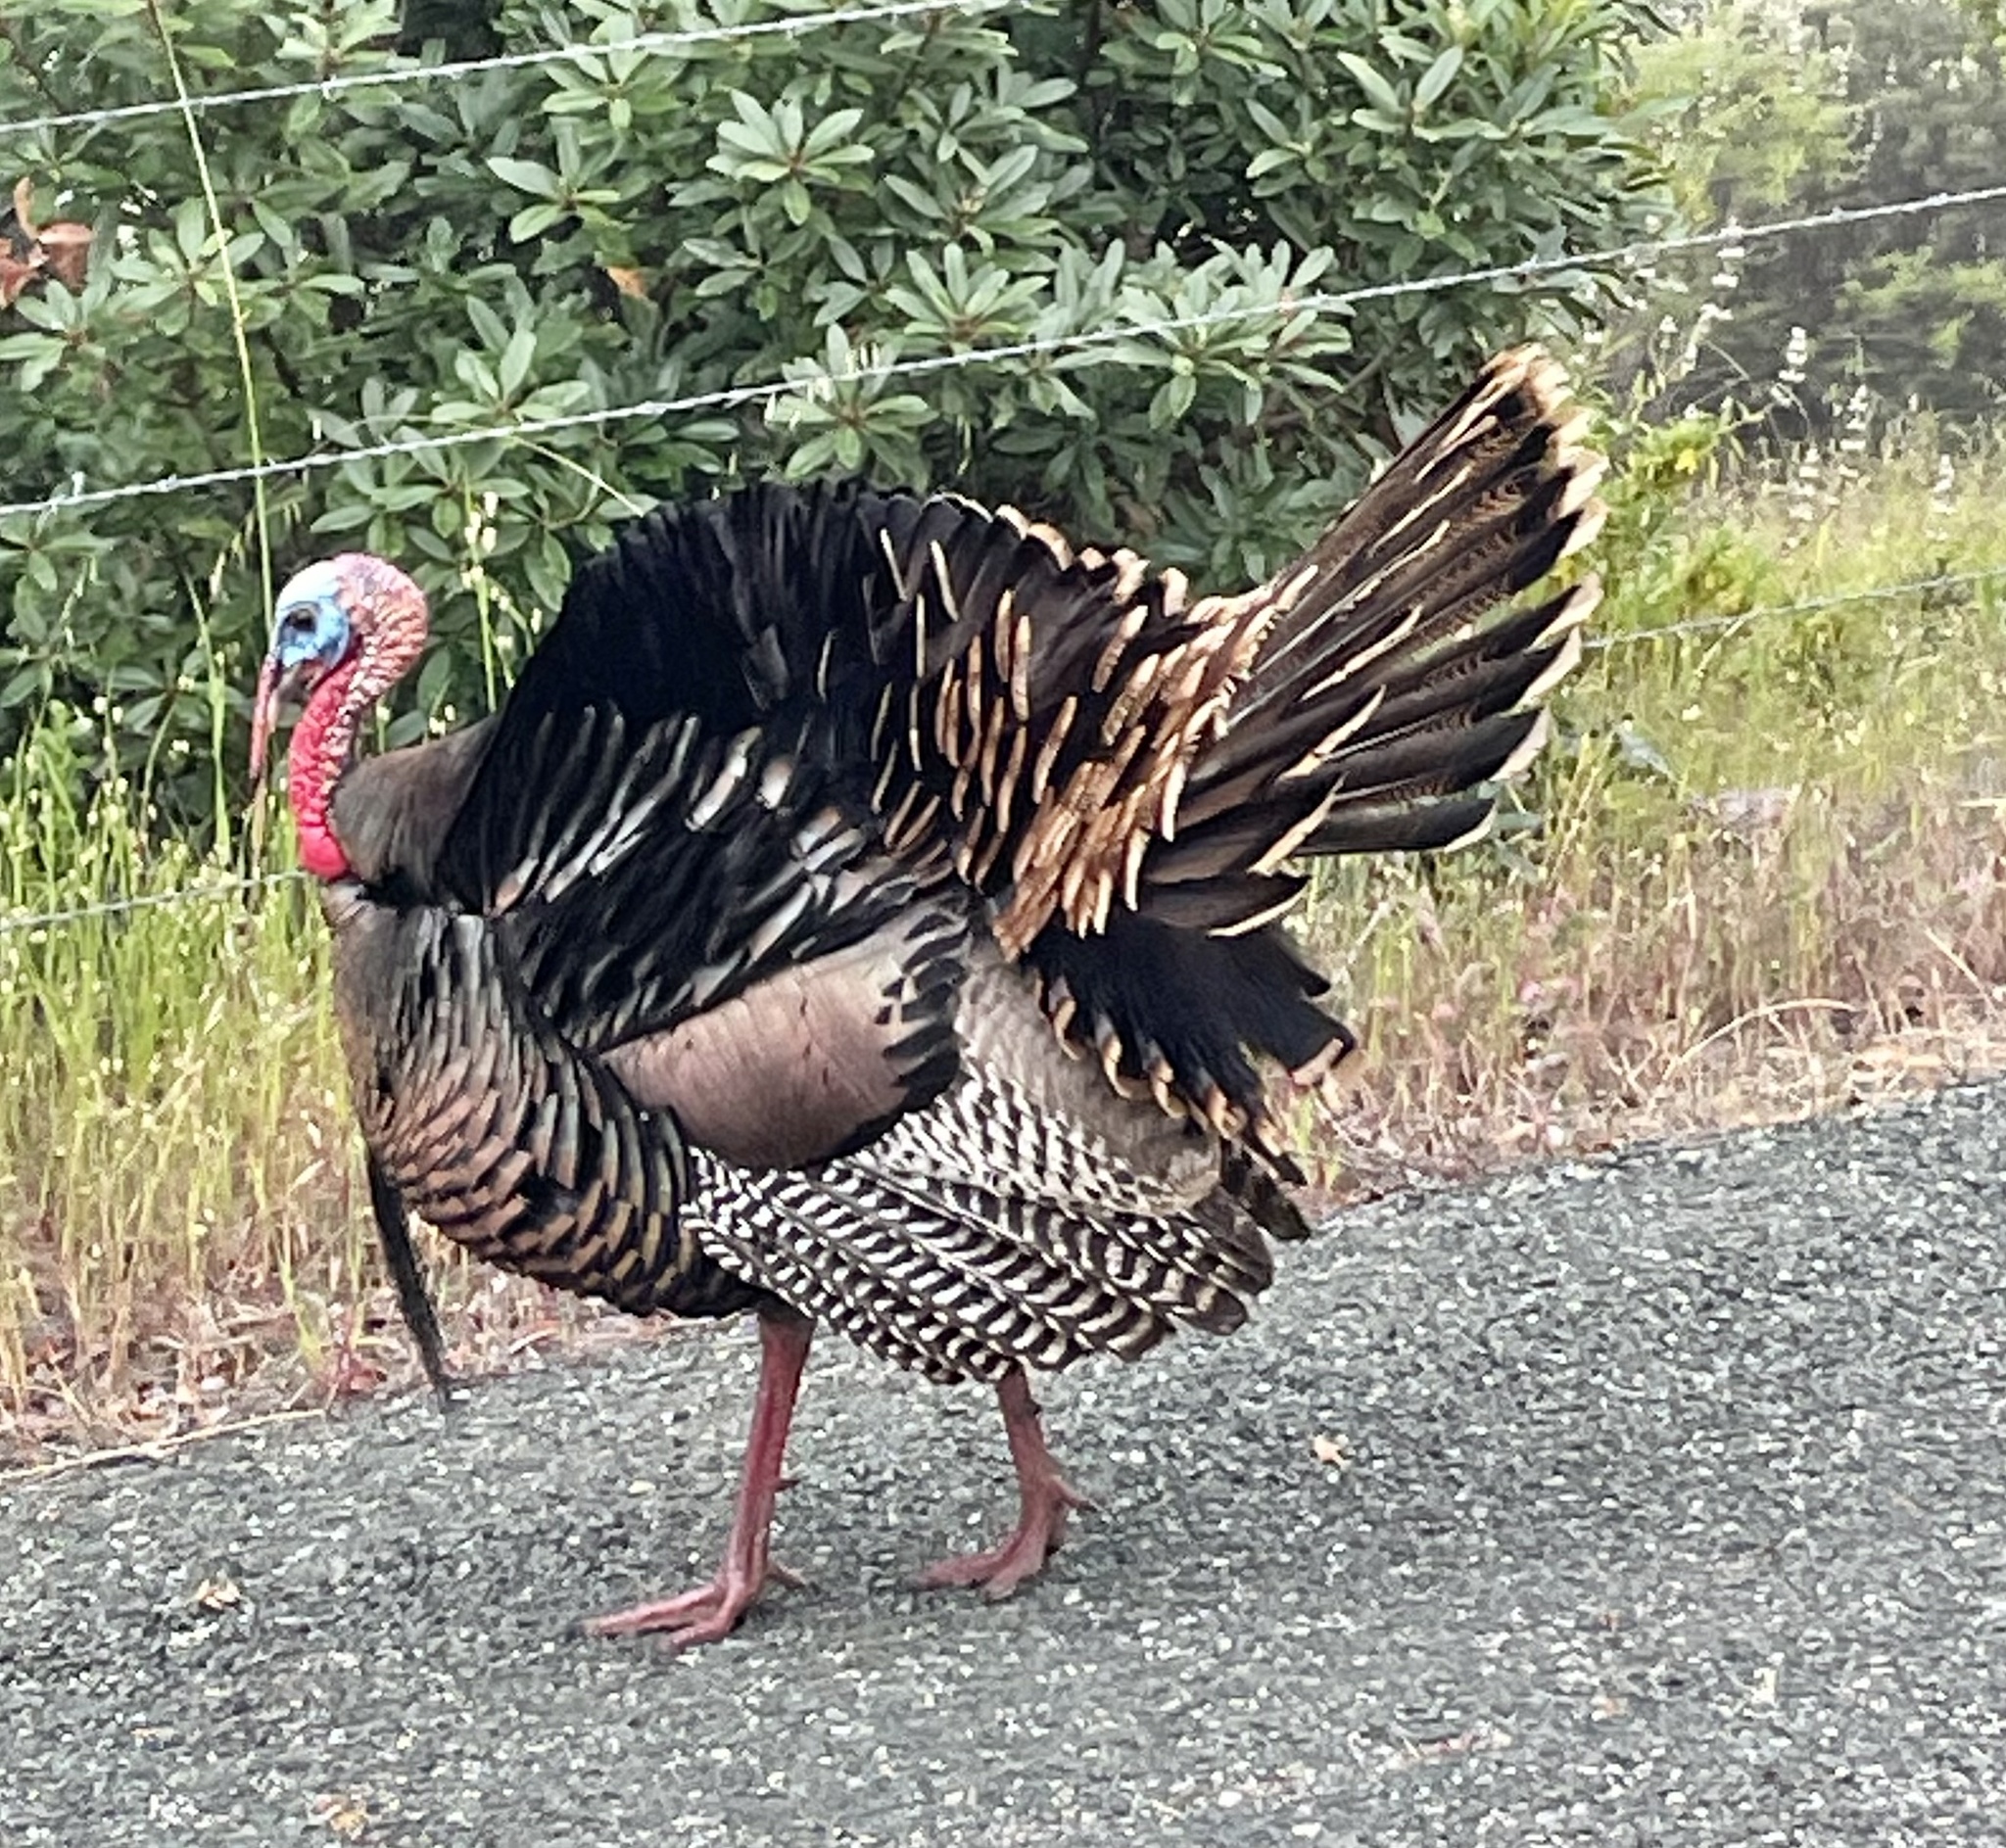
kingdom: Animalia
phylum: Chordata
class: Aves
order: Galliformes
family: Phasianidae
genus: Meleagris
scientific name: Meleagris gallopavo
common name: Wild turkey
